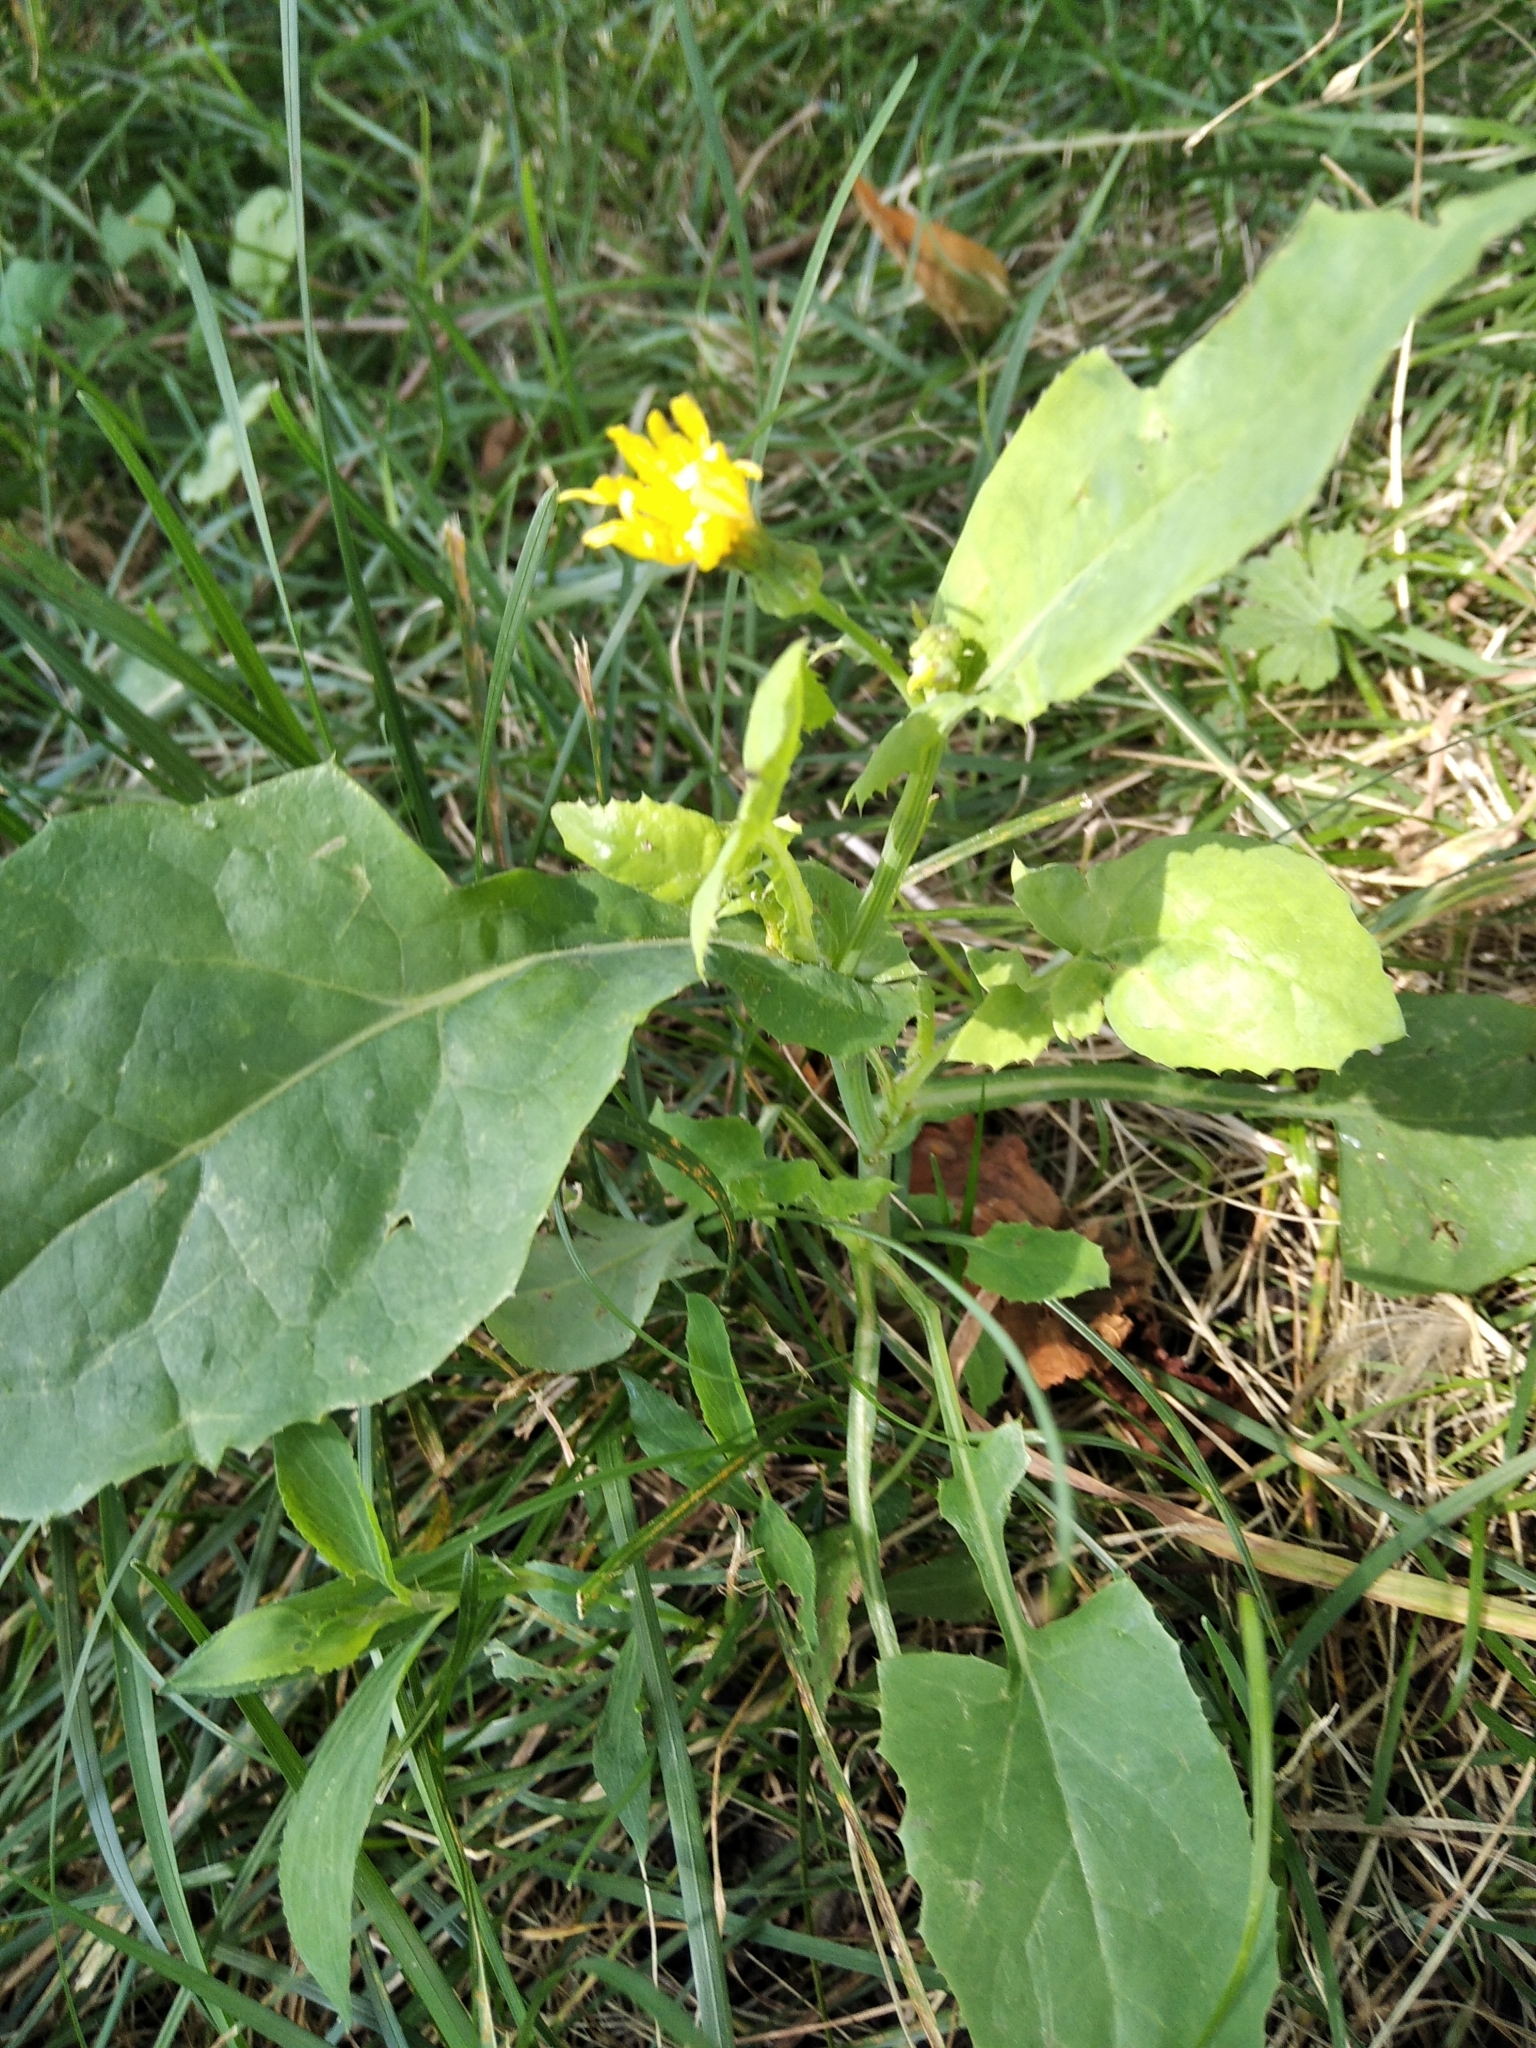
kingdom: Plantae
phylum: Tracheophyta
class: Magnoliopsida
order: Asterales
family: Asteraceae
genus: Sonchus
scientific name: Sonchus oleraceus
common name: Common sowthistle
